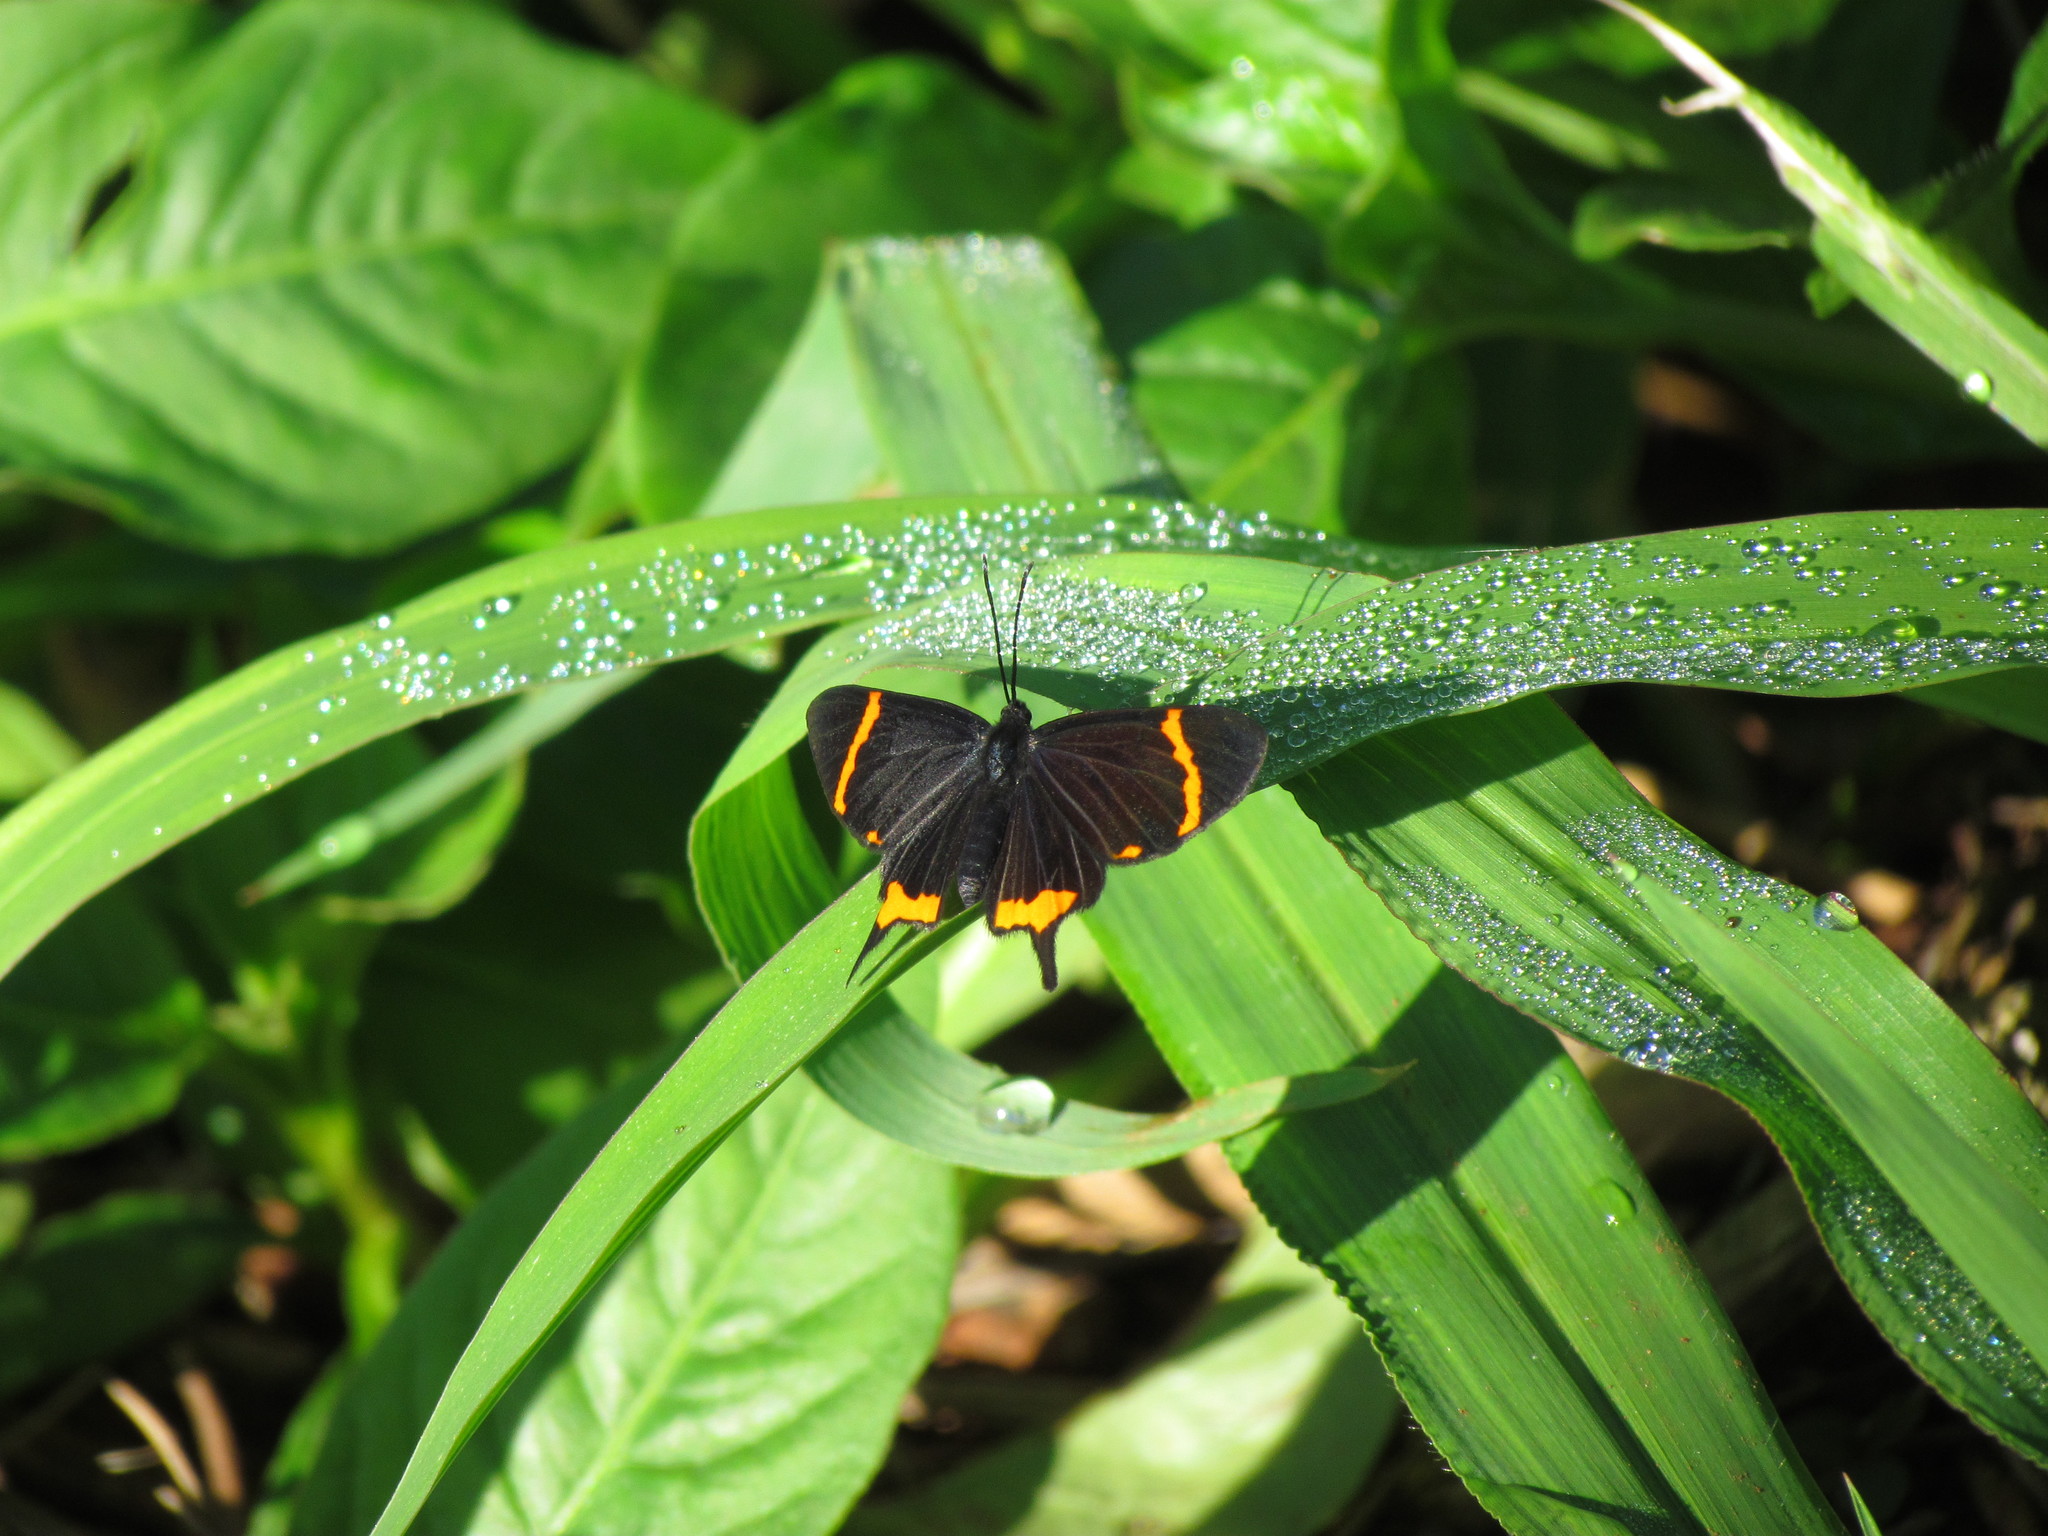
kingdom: Animalia
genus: Barbicornis
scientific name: Barbicornis basilis
